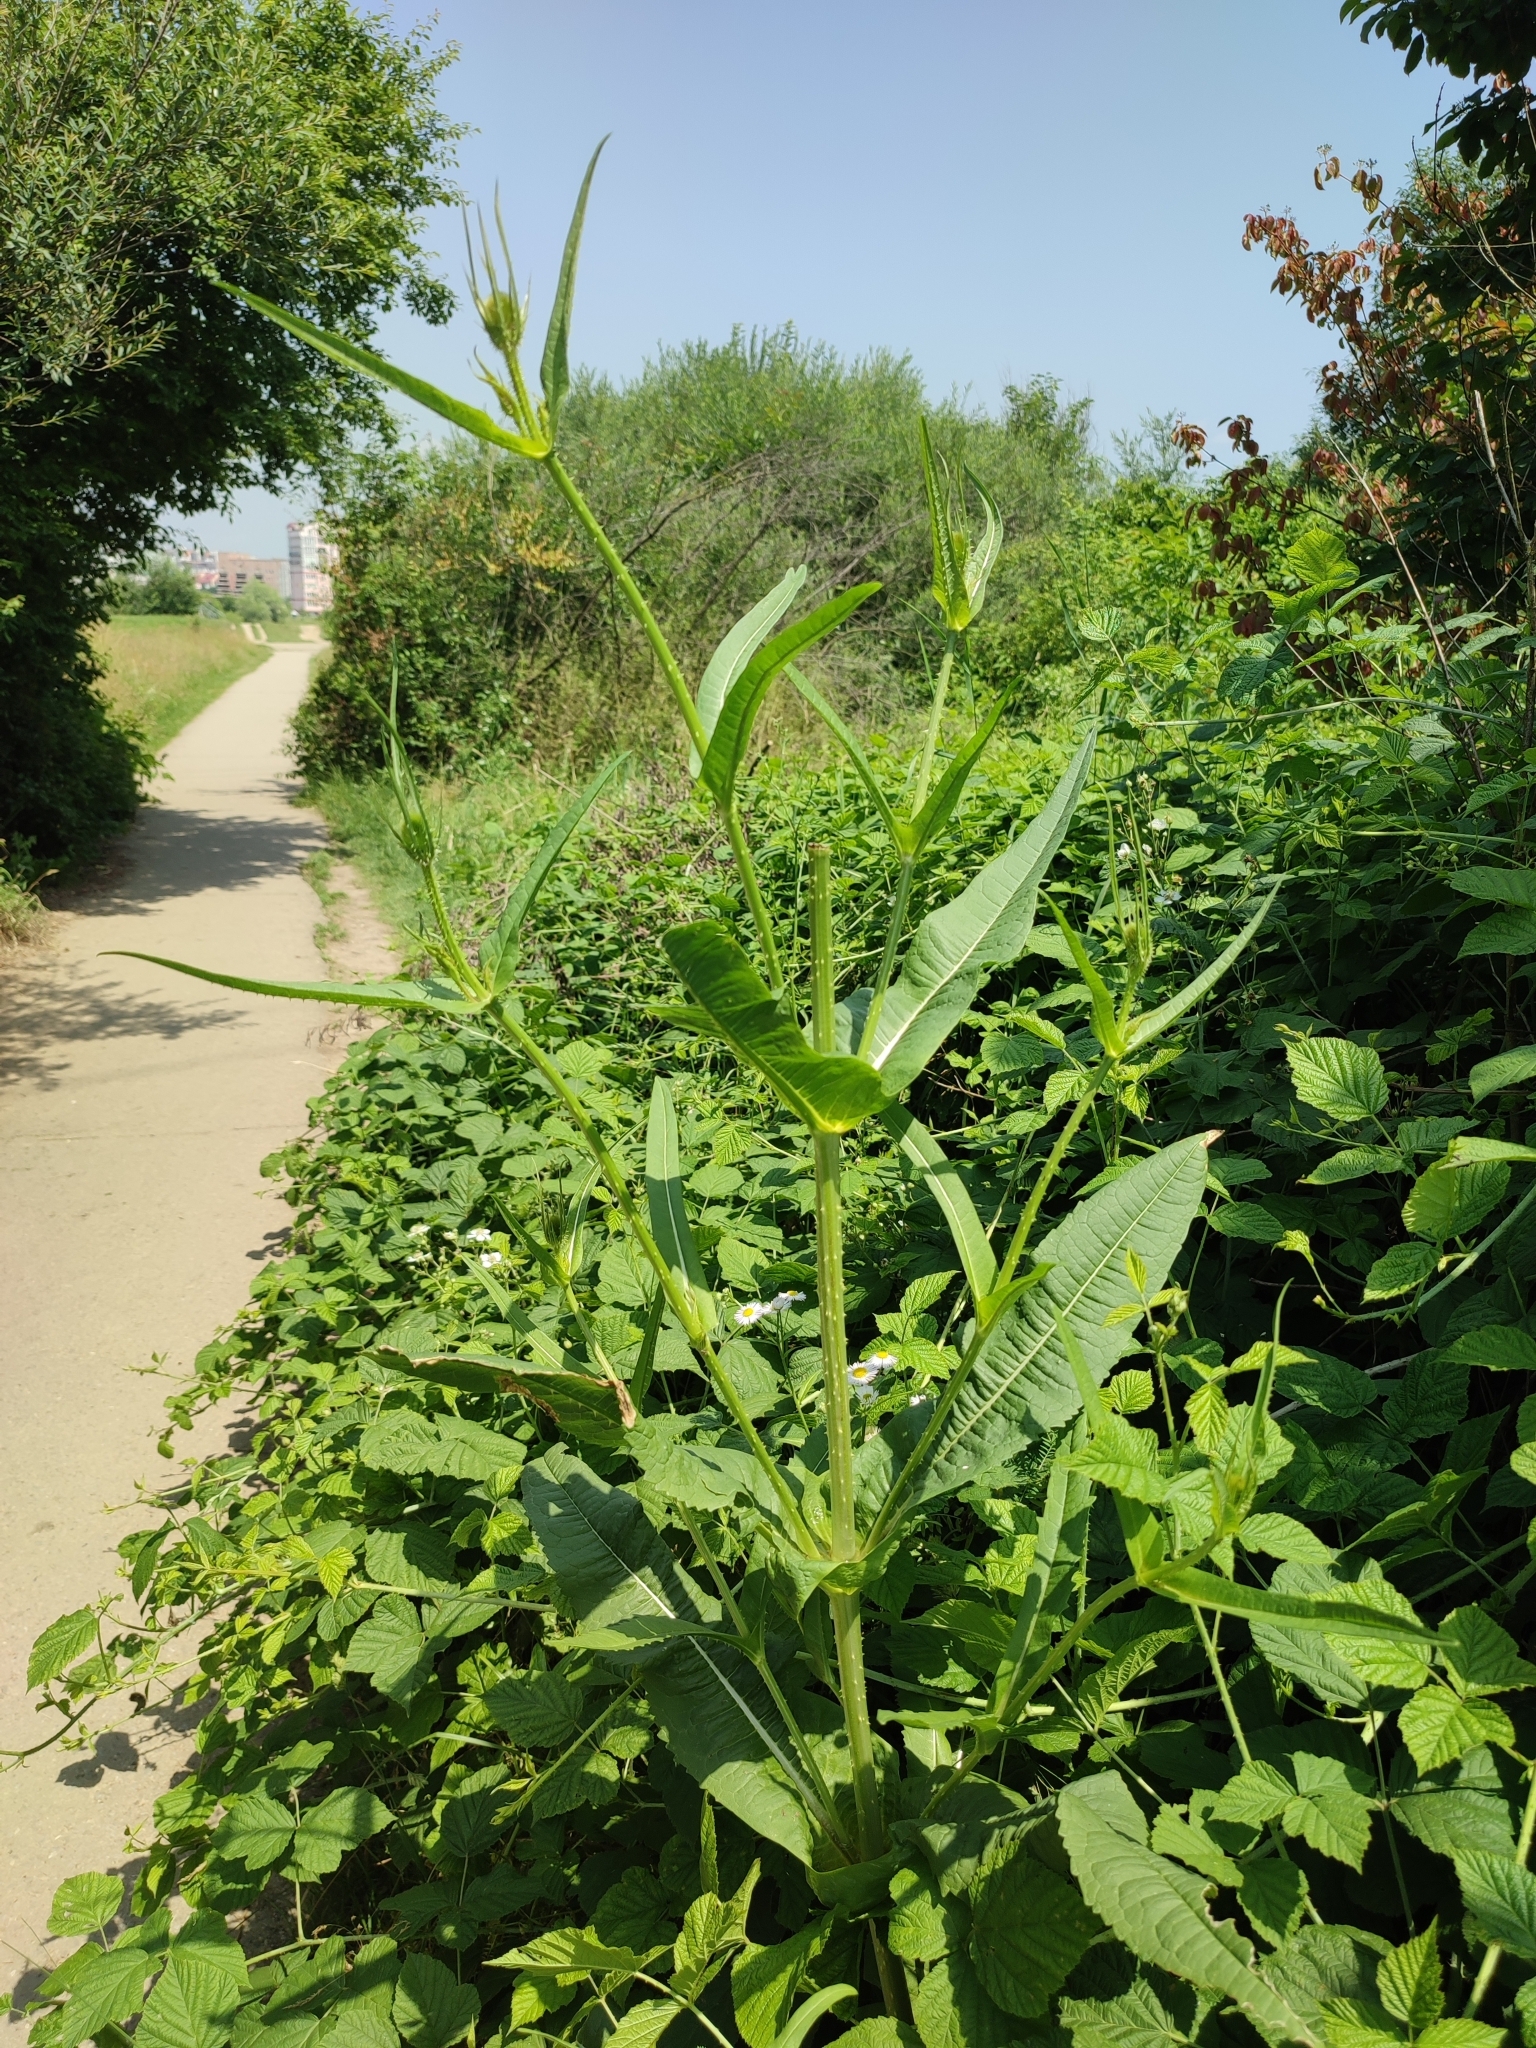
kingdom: Plantae
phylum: Tracheophyta
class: Magnoliopsida
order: Dipsacales
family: Caprifoliaceae
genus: Dipsacus
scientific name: Dipsacus fullonum
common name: Teasel
